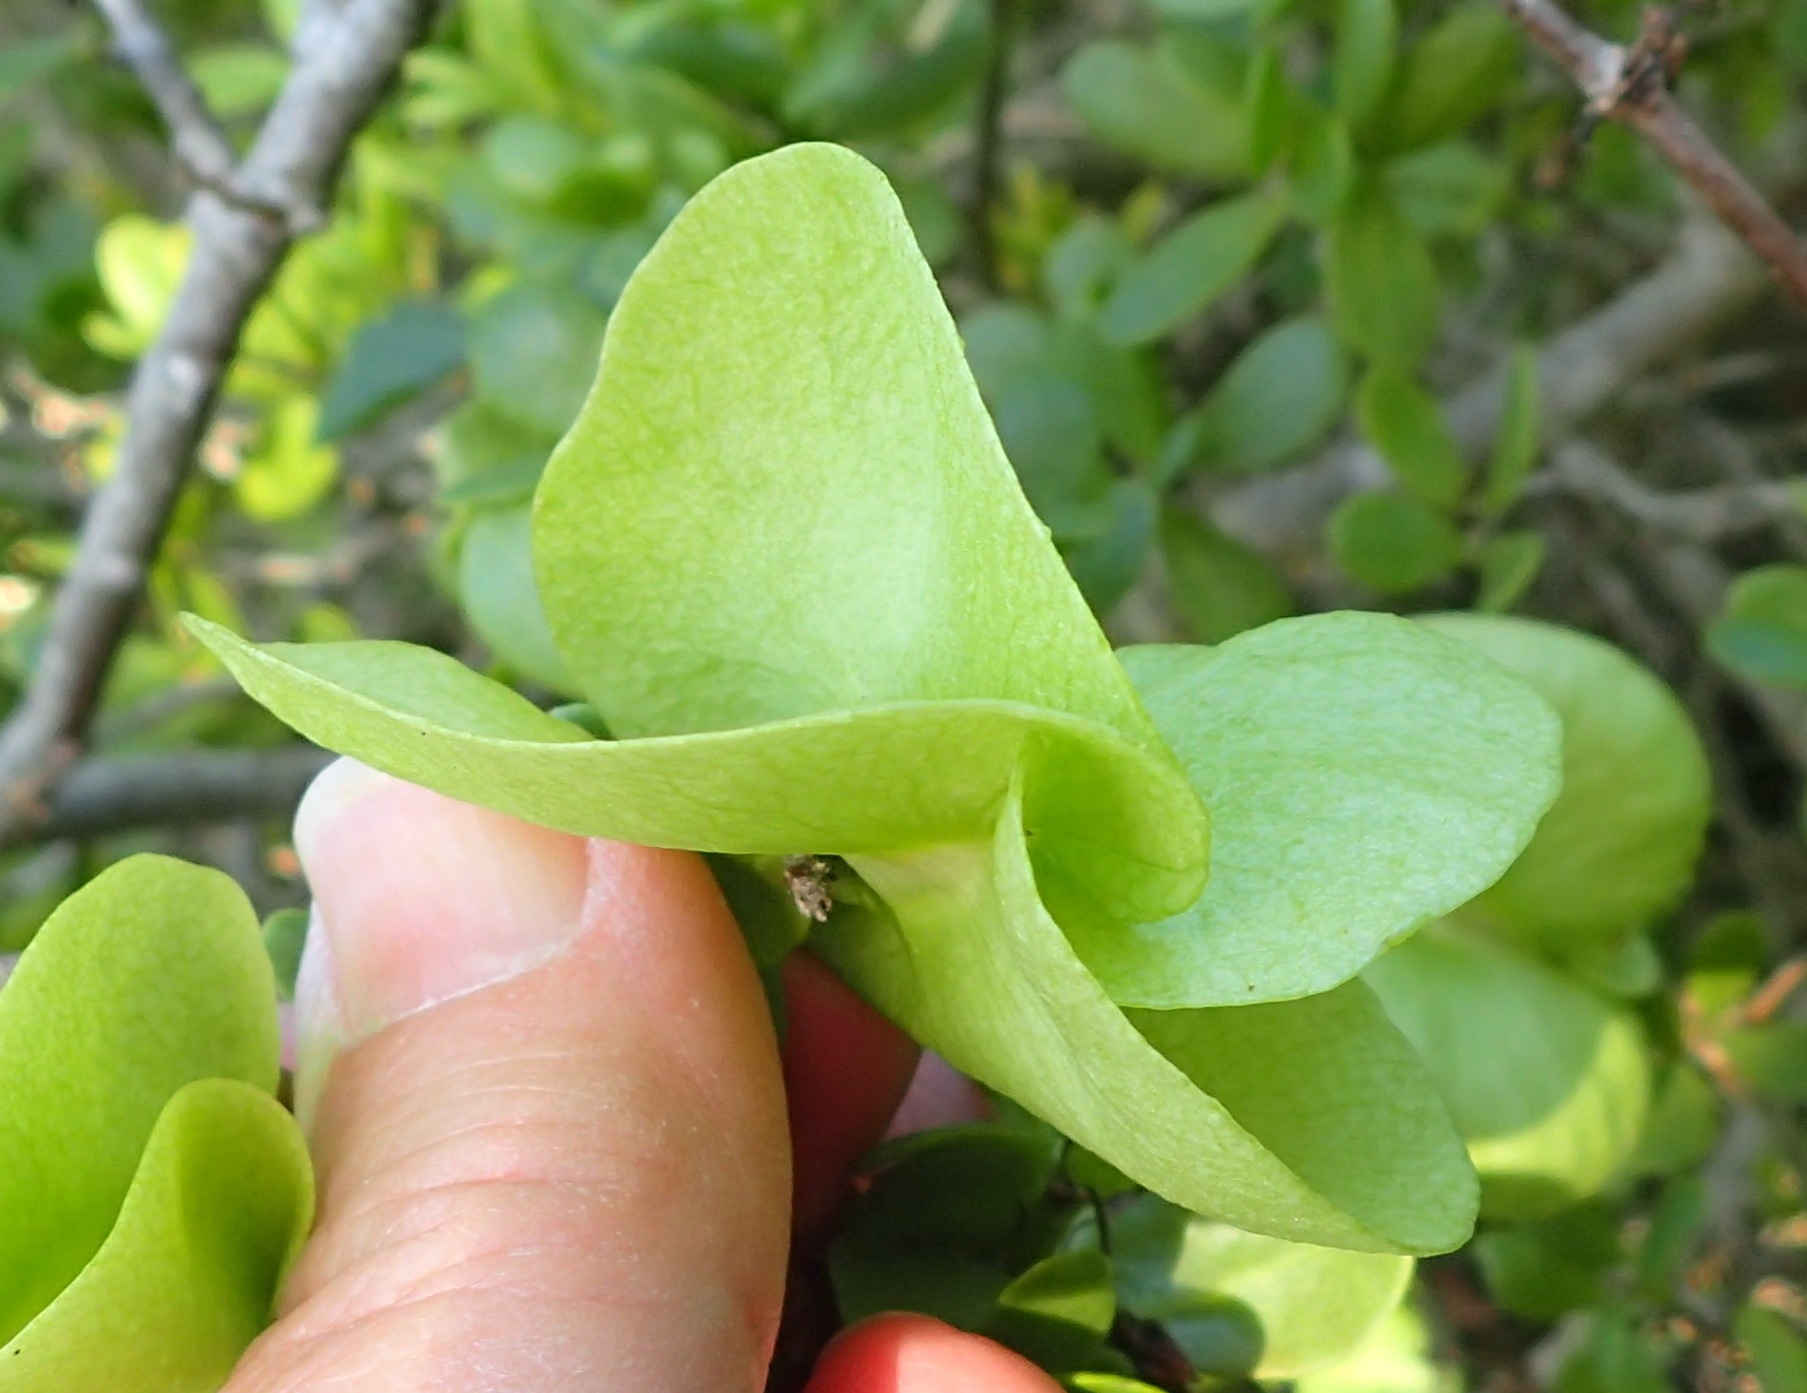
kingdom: Plantae
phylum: Tracheophyta
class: Magnoliopsida
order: Zygophyllales
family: Zygophyllaceae
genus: Roepera
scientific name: Roepera morgsana
